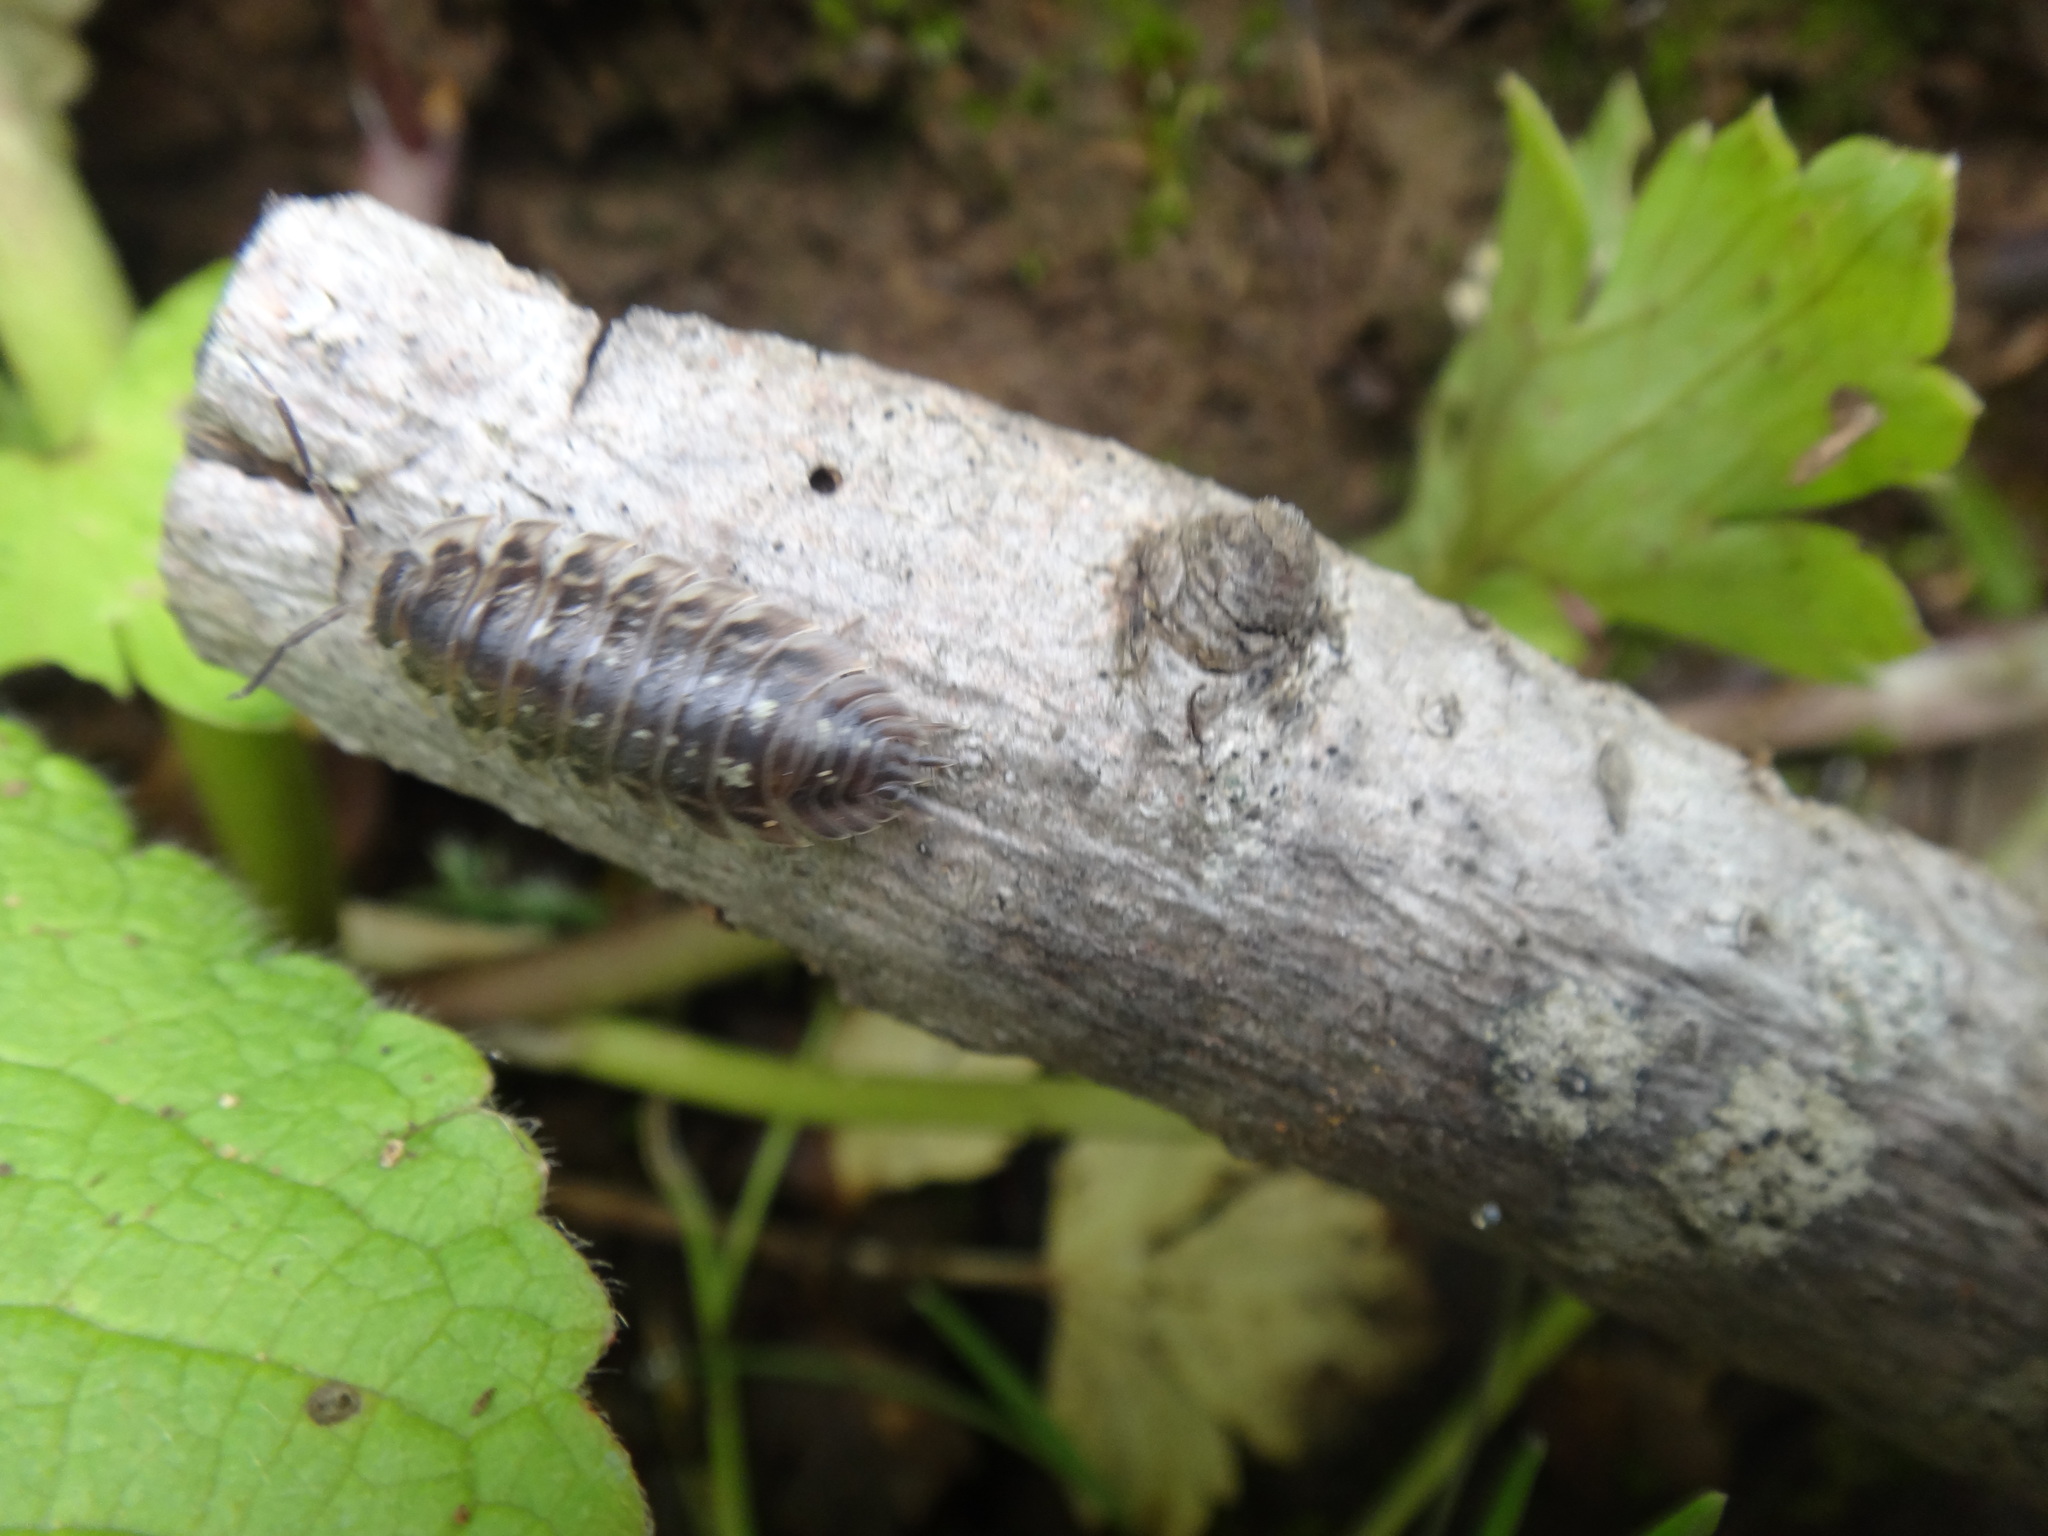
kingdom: Animalia
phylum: Arthropoda
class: Malacostraca
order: Isopoda
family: Oniscidae
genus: Oniscus
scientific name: Oniscus asellus
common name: Common shiny woodlouse
